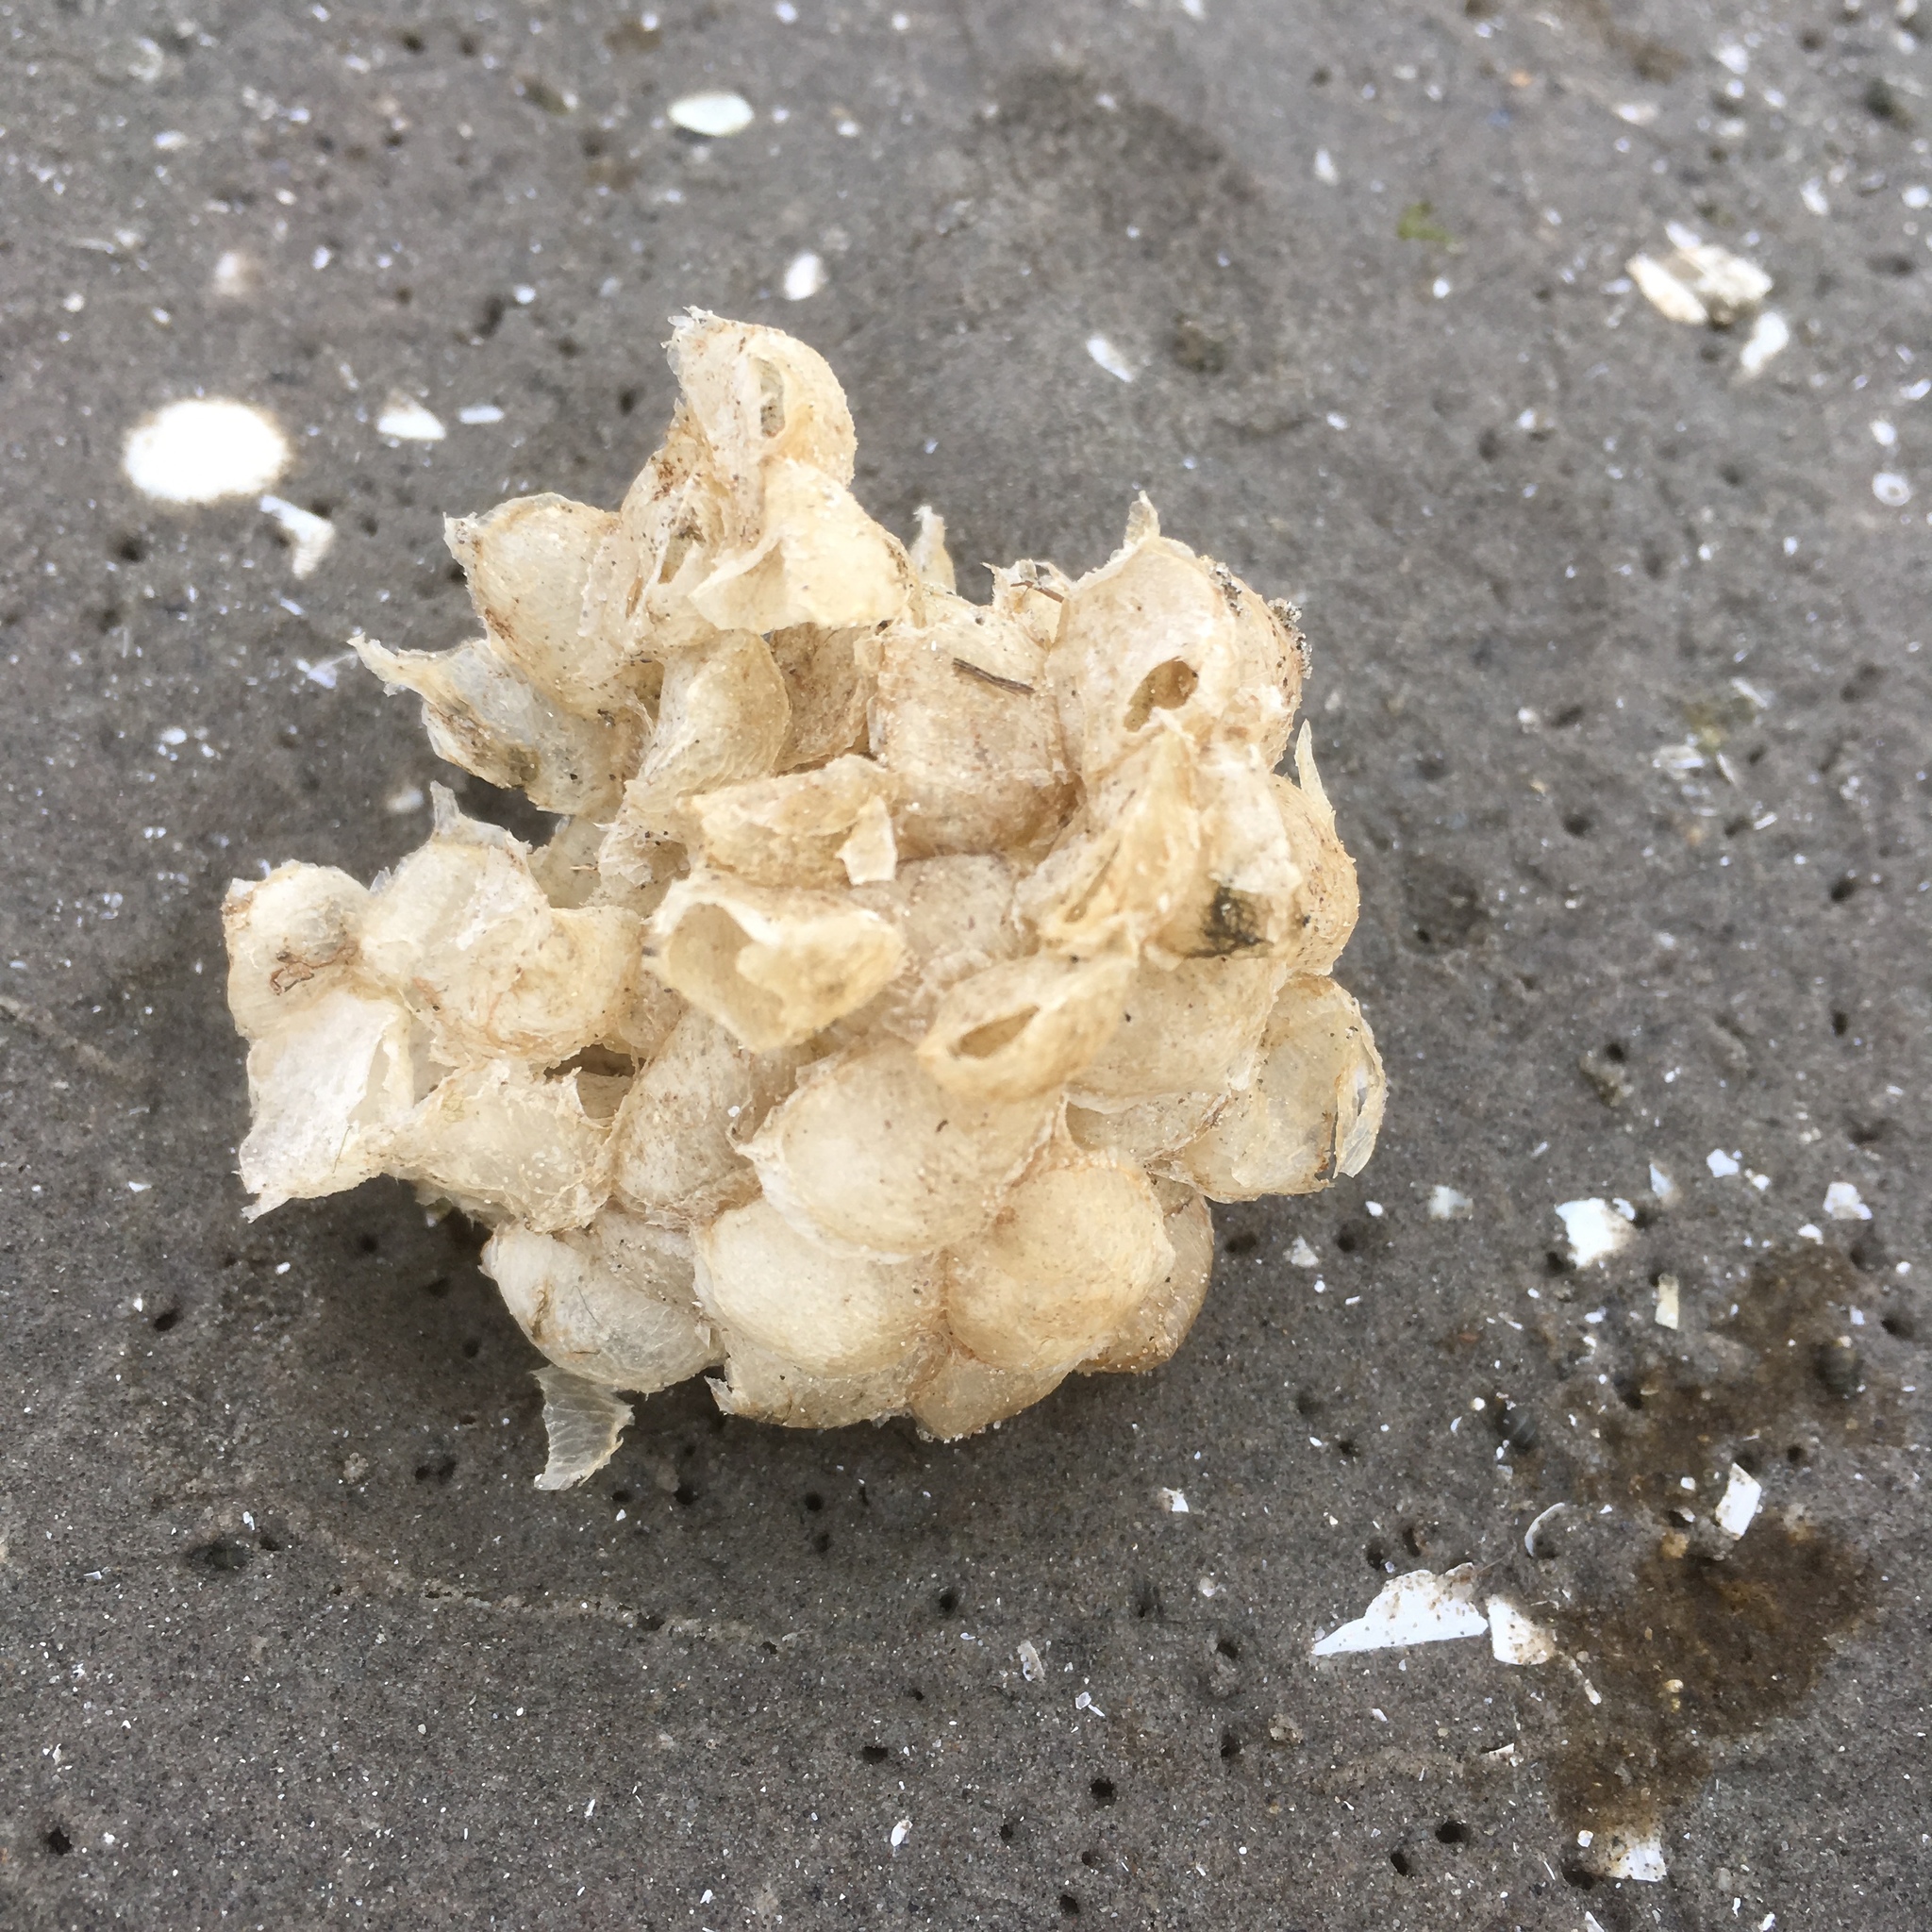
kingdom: Animalia
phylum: Mollusca
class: Gastropoda
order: Neogastropoda
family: Buccinidae
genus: Buccinum
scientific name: Buccinum undatum
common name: Common whelk
